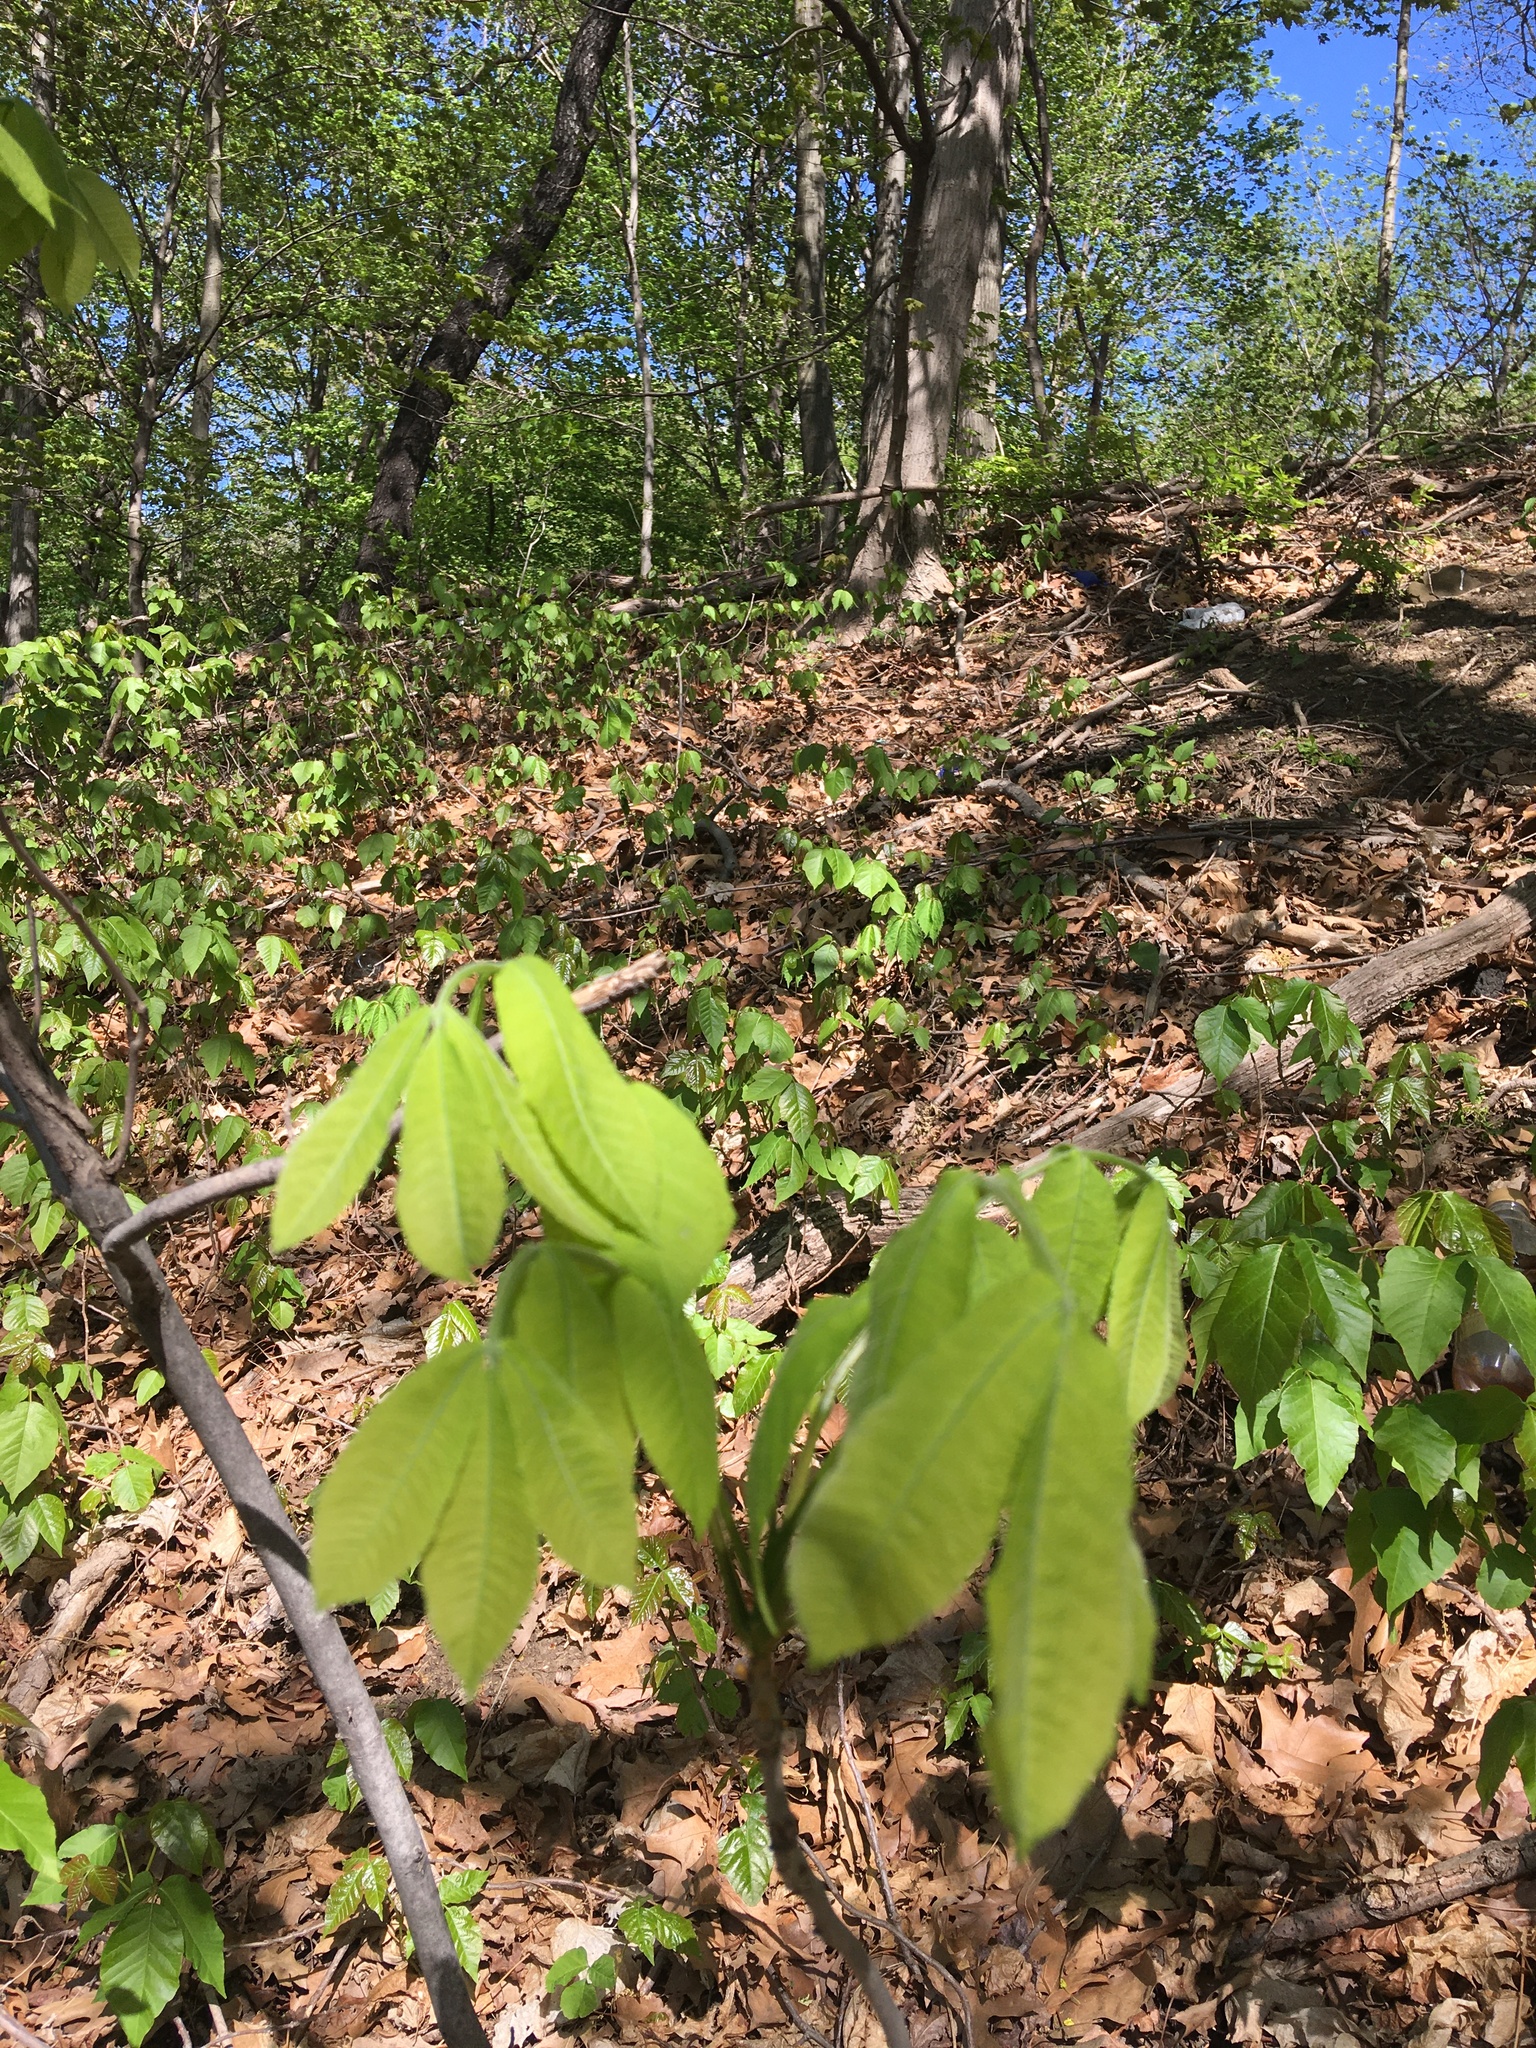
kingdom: Plantae
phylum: Tracheophyta
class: Magnoliopsida
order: Fagales
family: Juglandaceae
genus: Carya
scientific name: Carya alba
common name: Mockernut hickory
